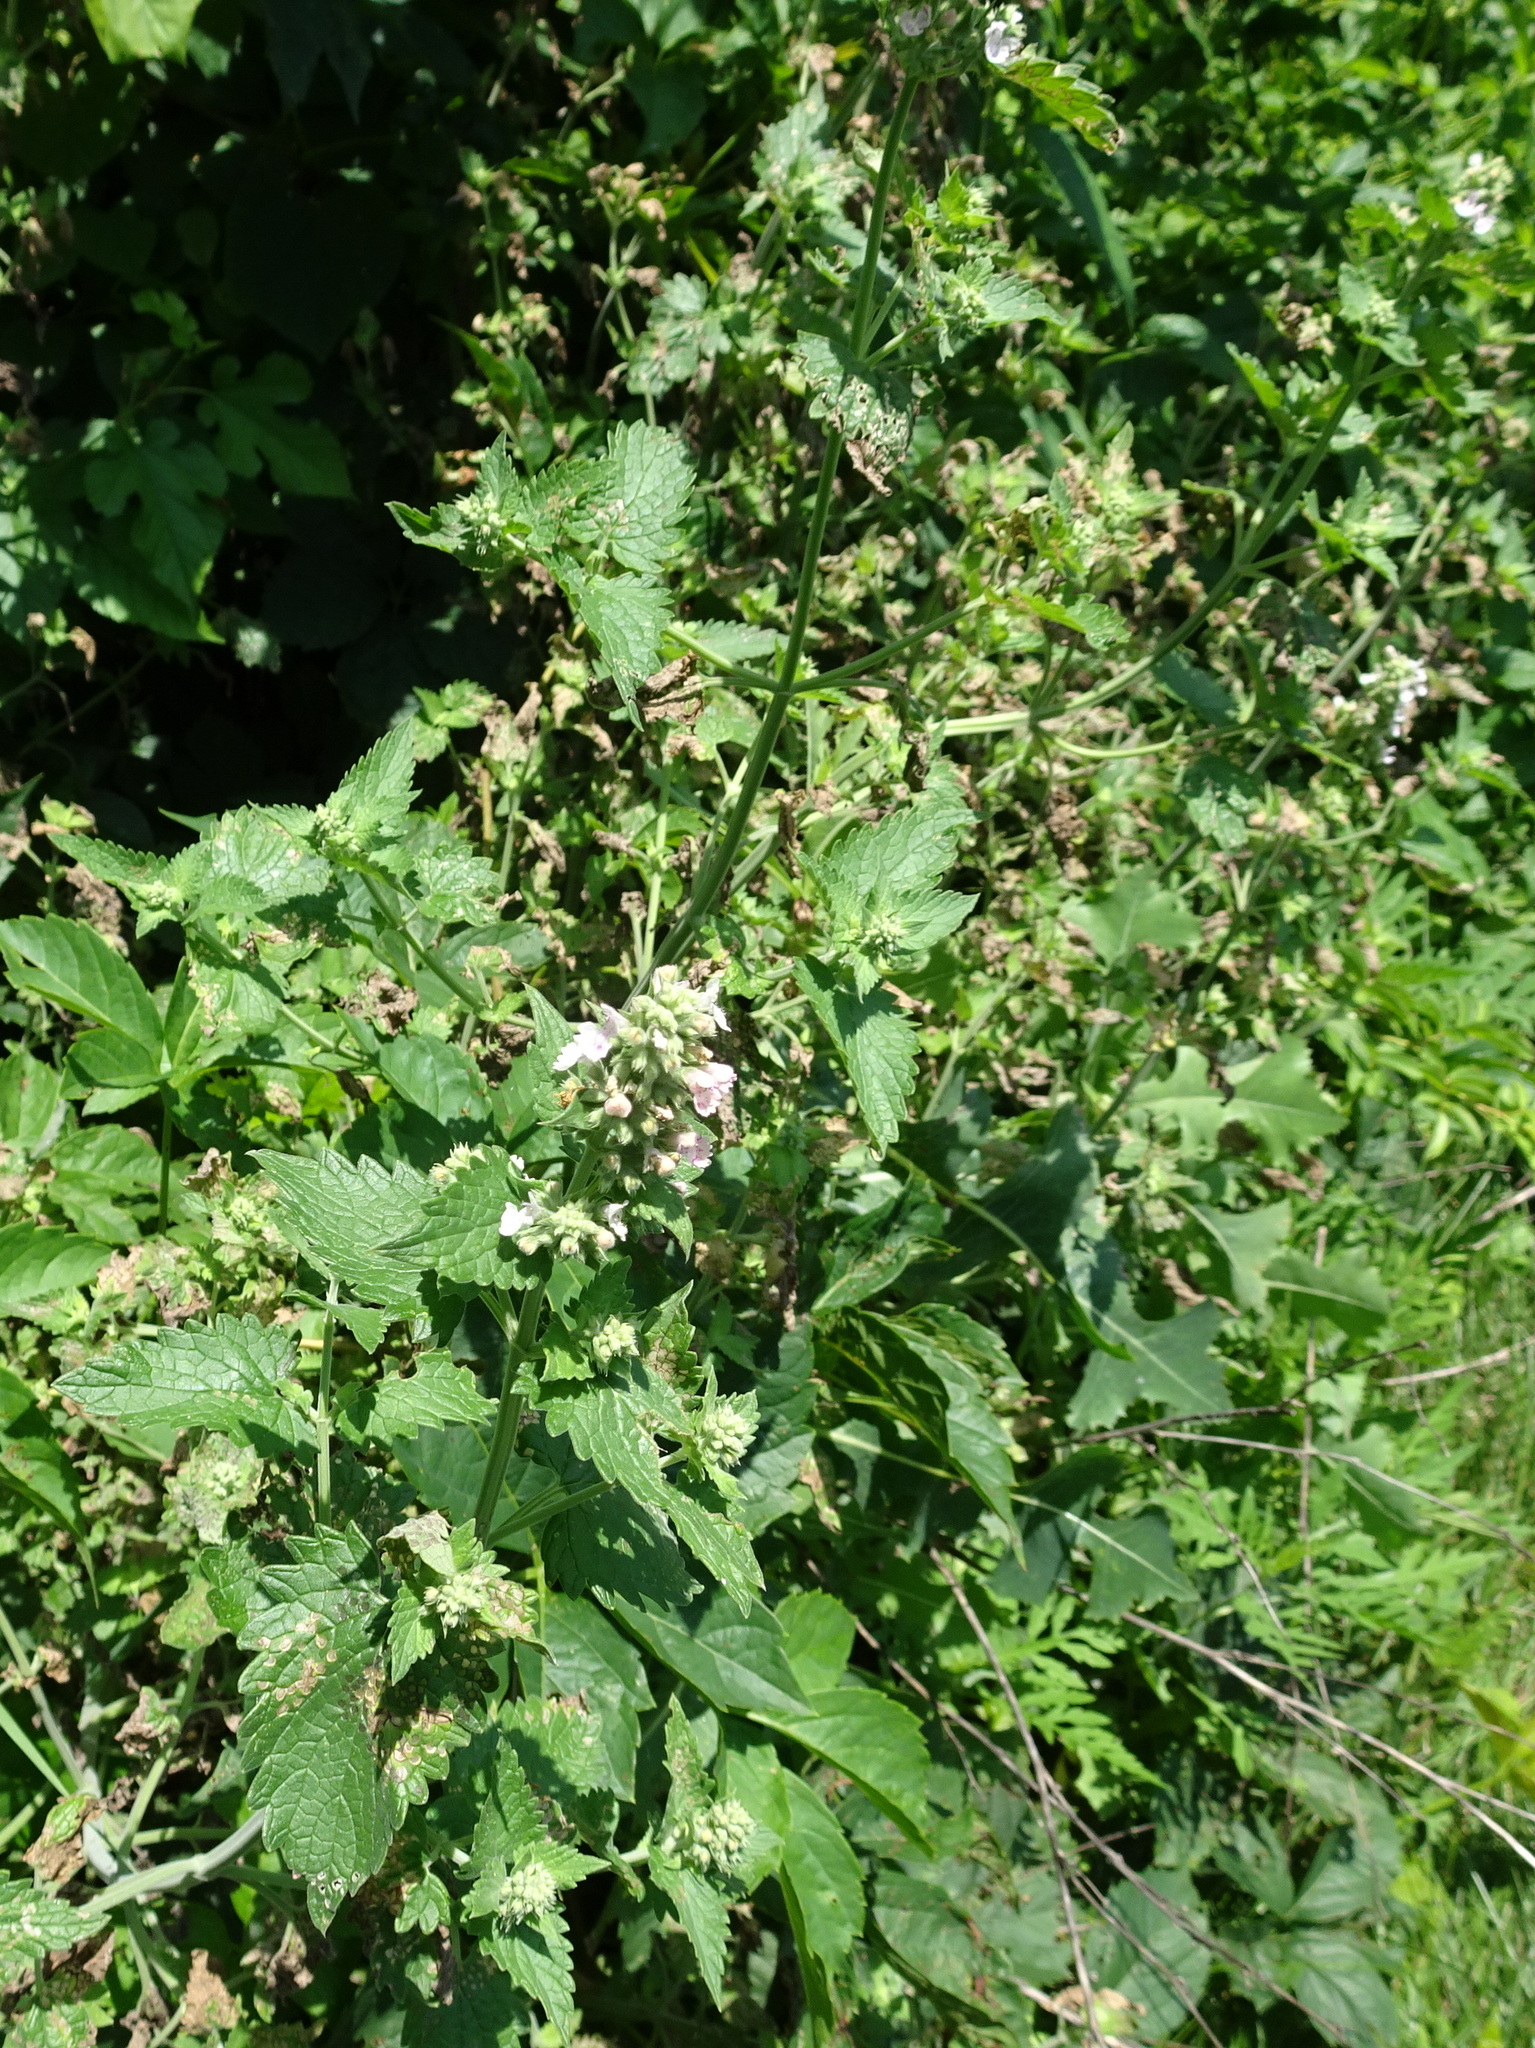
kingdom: Plantae
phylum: Tracheophyta
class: Magnoliopsida
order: Lamiales
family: Lamiaceae
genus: Nepeta
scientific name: Nepeta cataria
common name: Catnip
